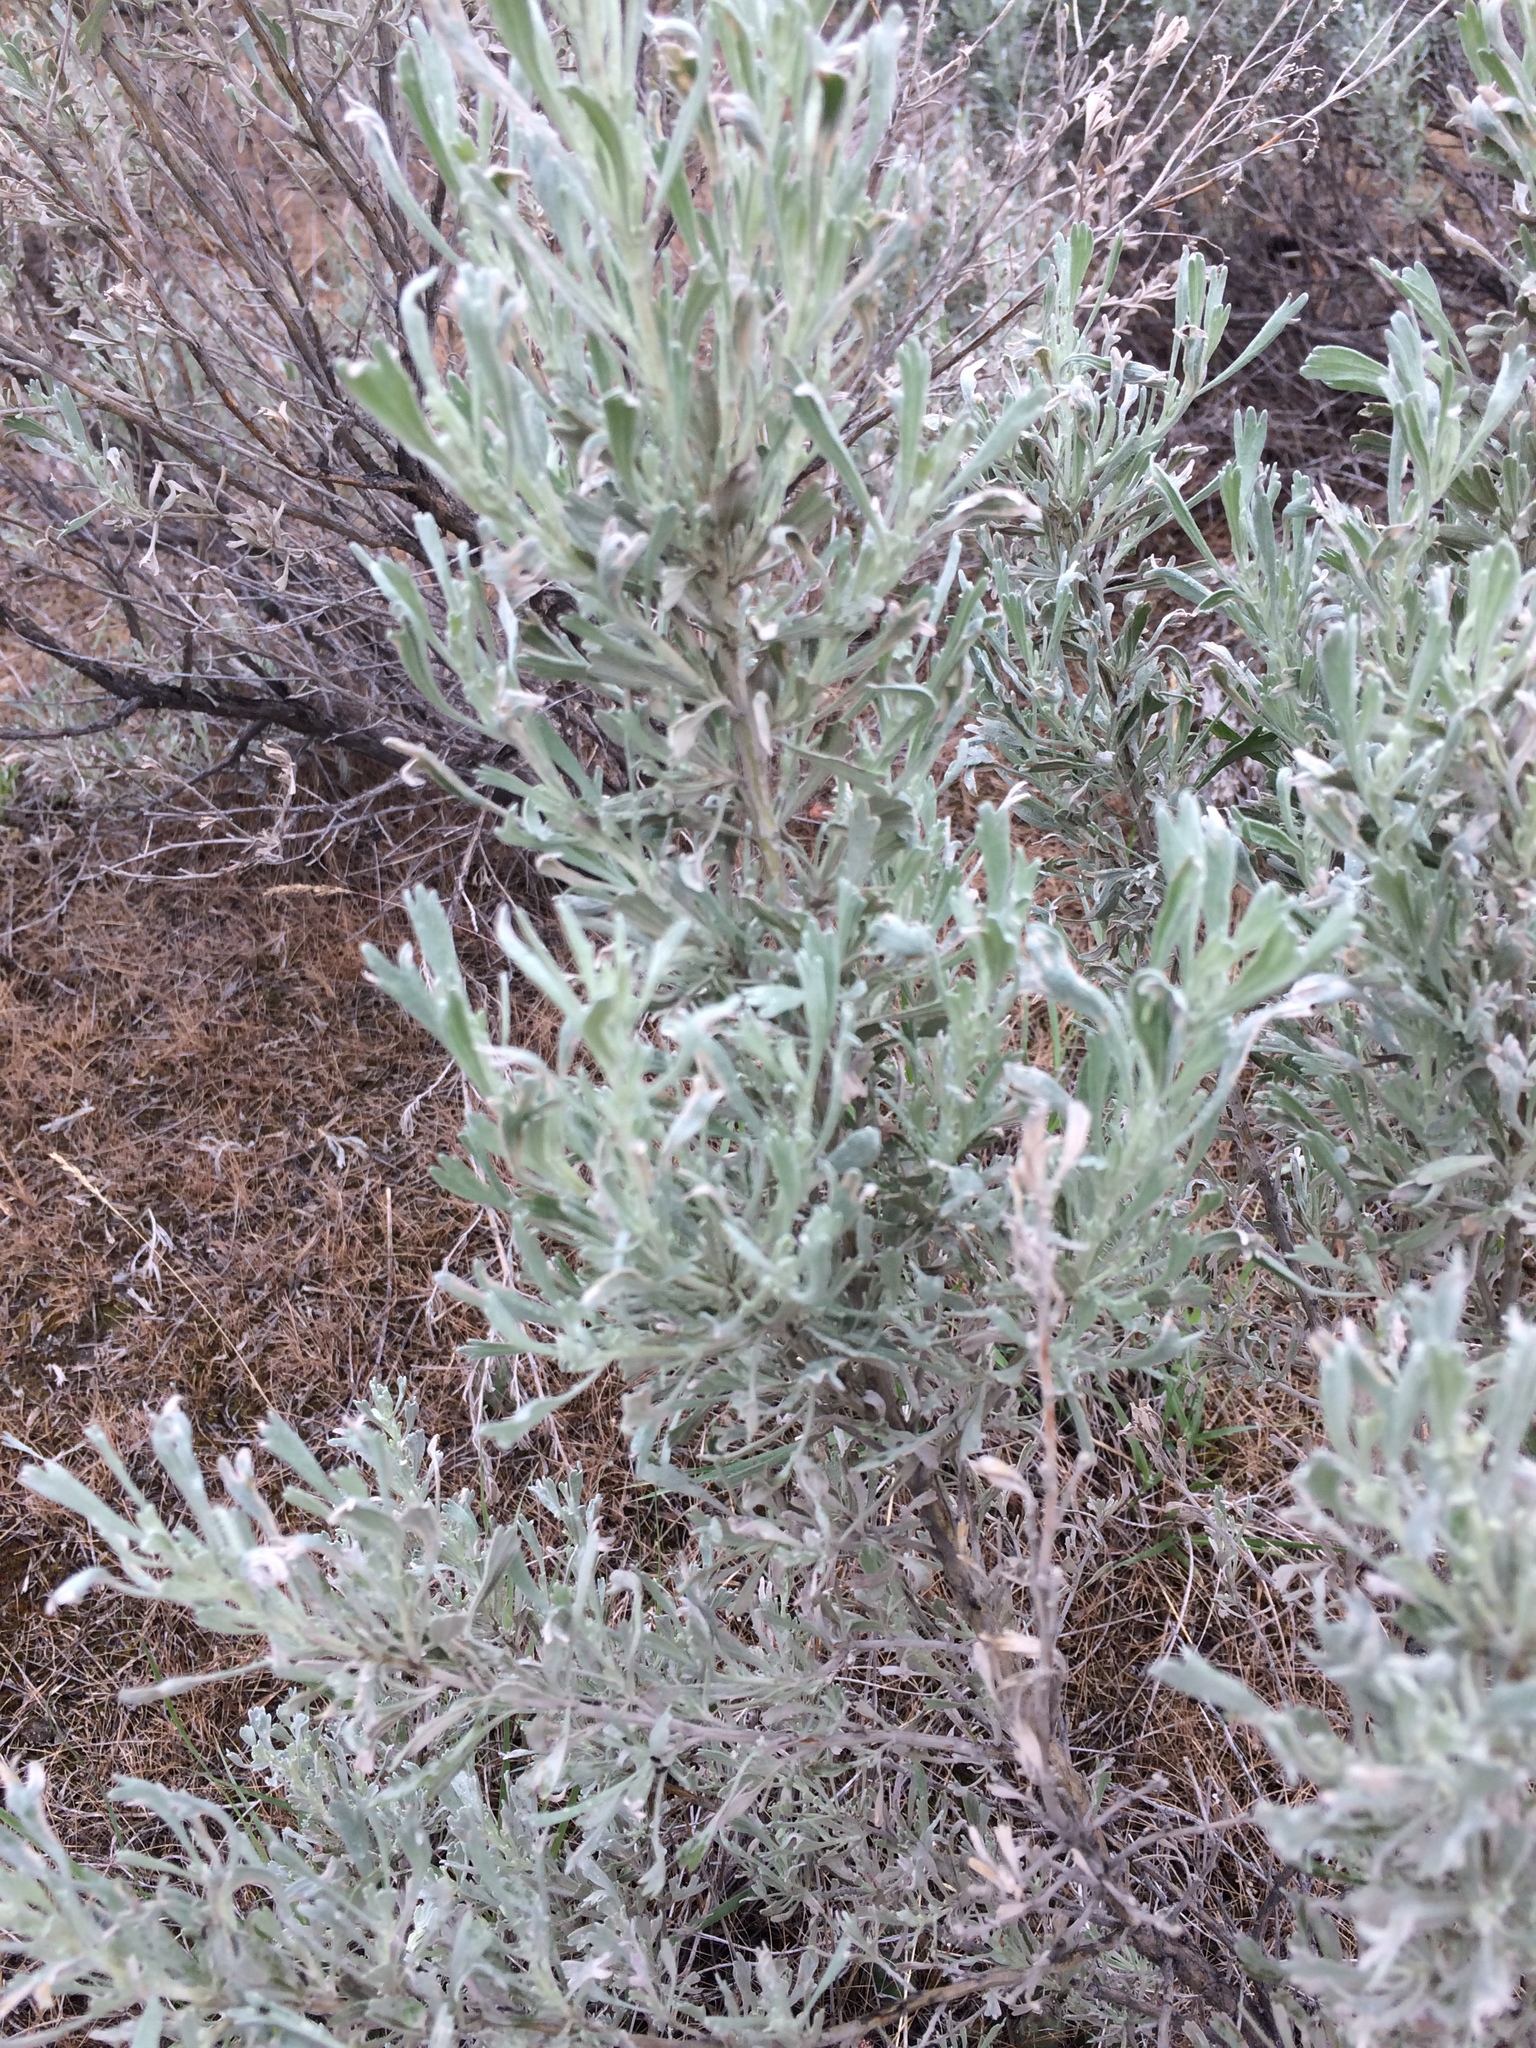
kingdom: Plantae
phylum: Tracheophyta
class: Magnoliopsida
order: Asterales
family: Asteraceae
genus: Artemisia
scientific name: Artemisia tridentata
